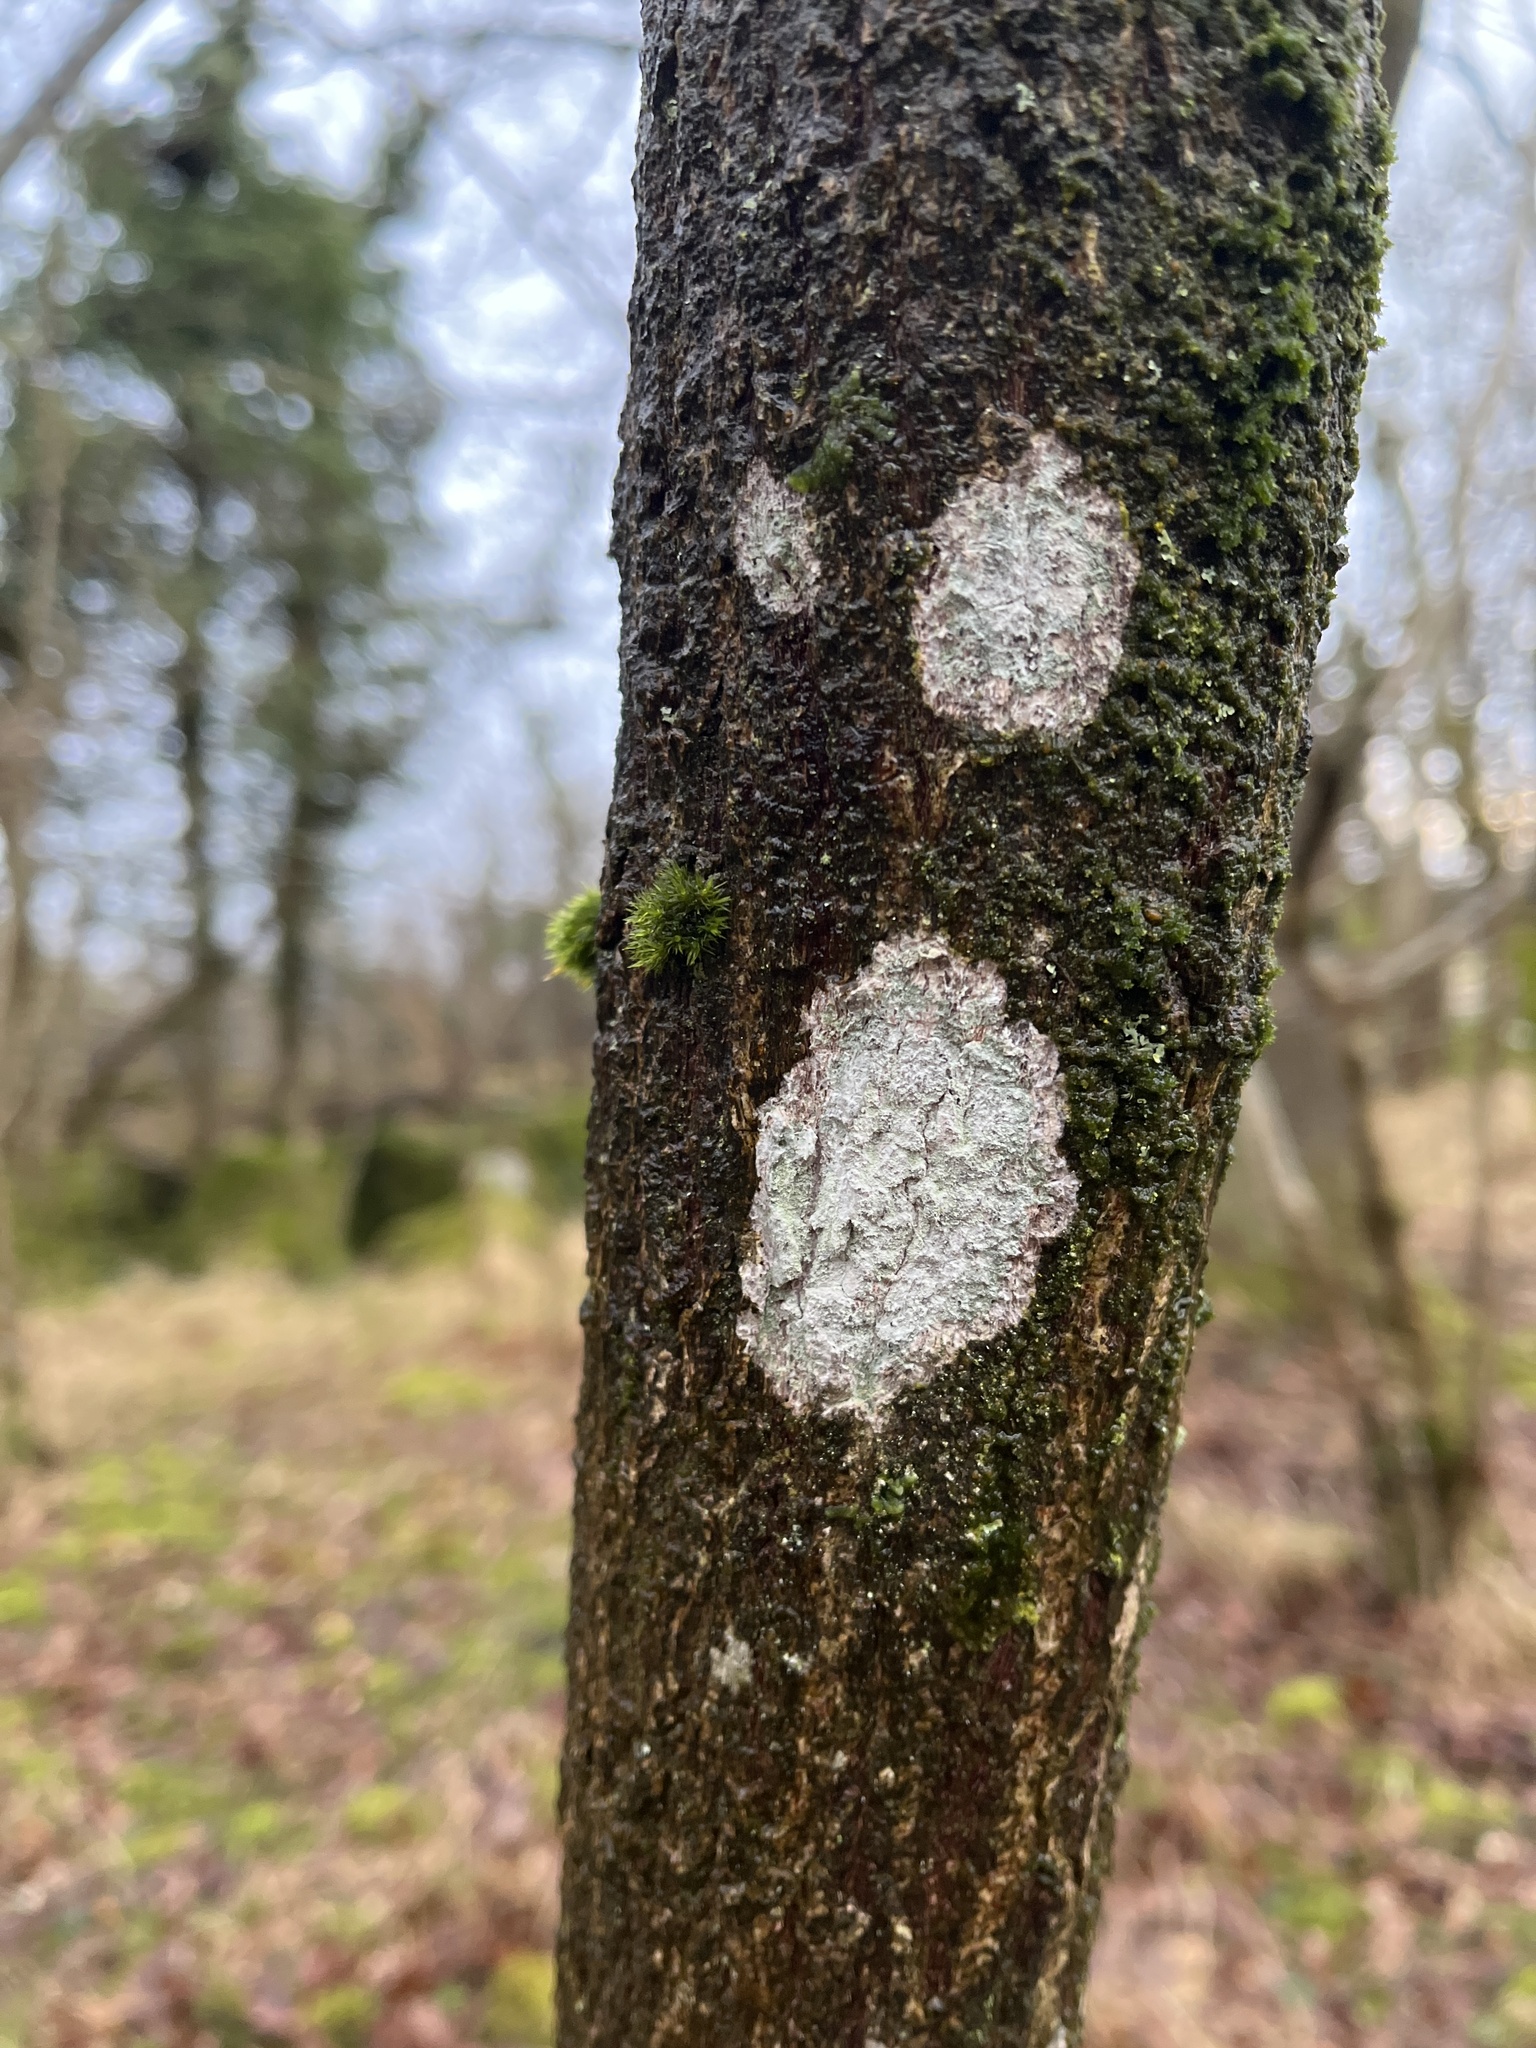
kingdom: Fungi
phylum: Ascomycota
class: Lecanoromycetes
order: Ostropales
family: Phlyctidaceae
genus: Phlyctis
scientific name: Phlyctis argena
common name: Whitewash lichen
